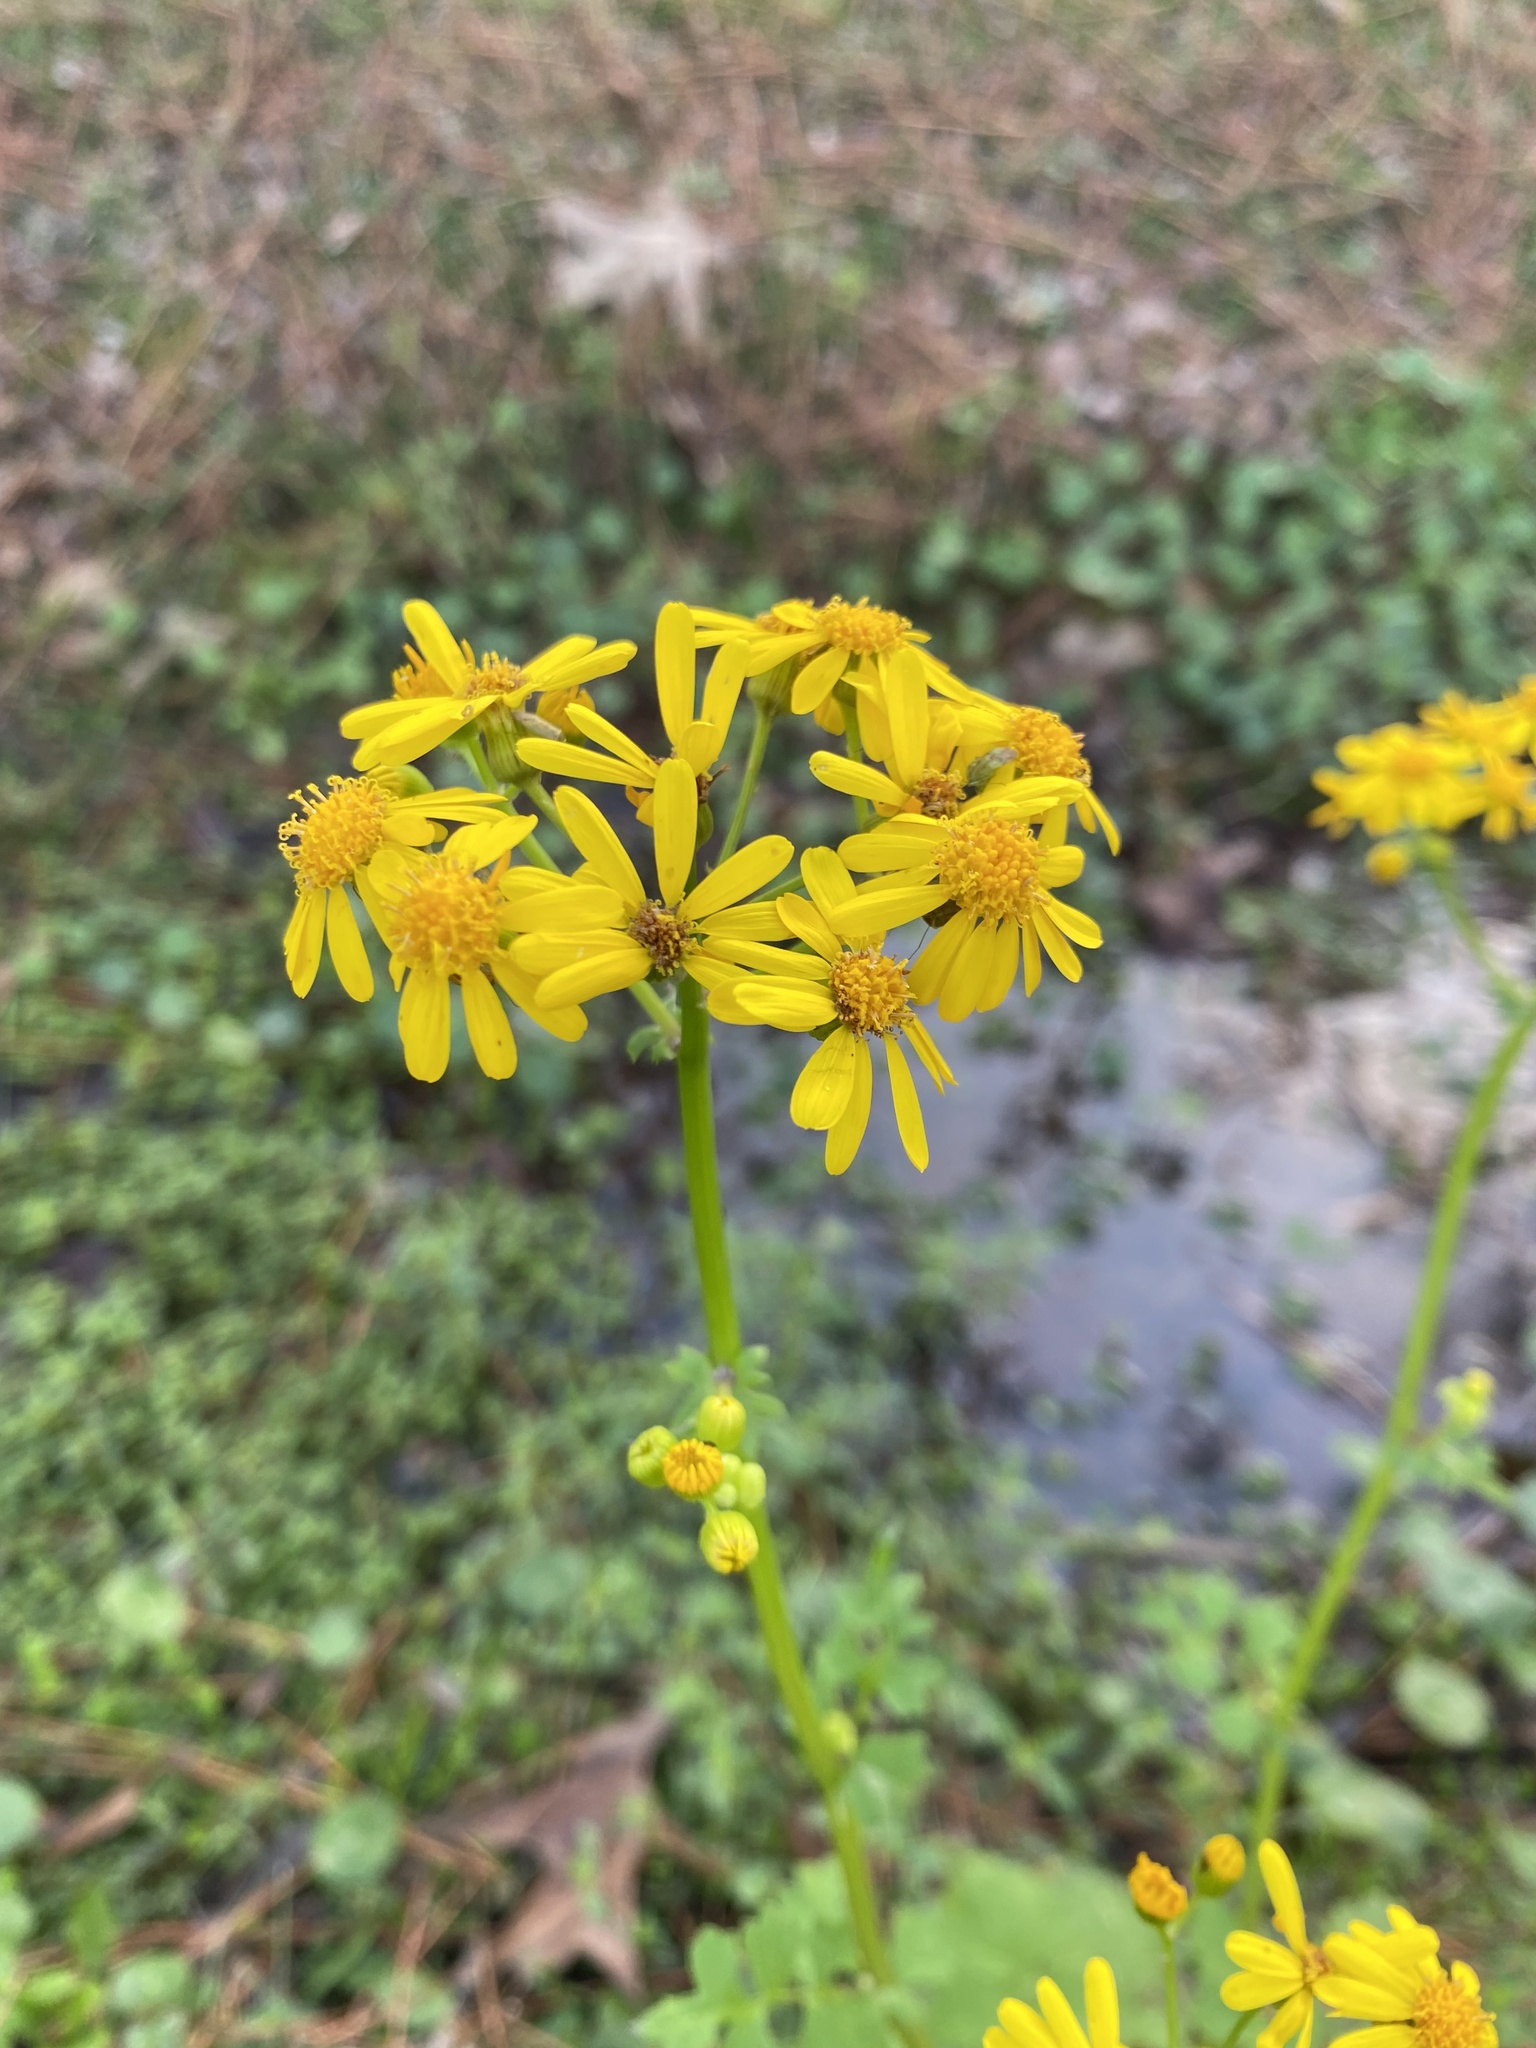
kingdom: Plantae
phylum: Tracheophyta
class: Magnoliopsida
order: Asterales
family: Asteraceae
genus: Packera
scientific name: Packera glabella
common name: Butterweed
